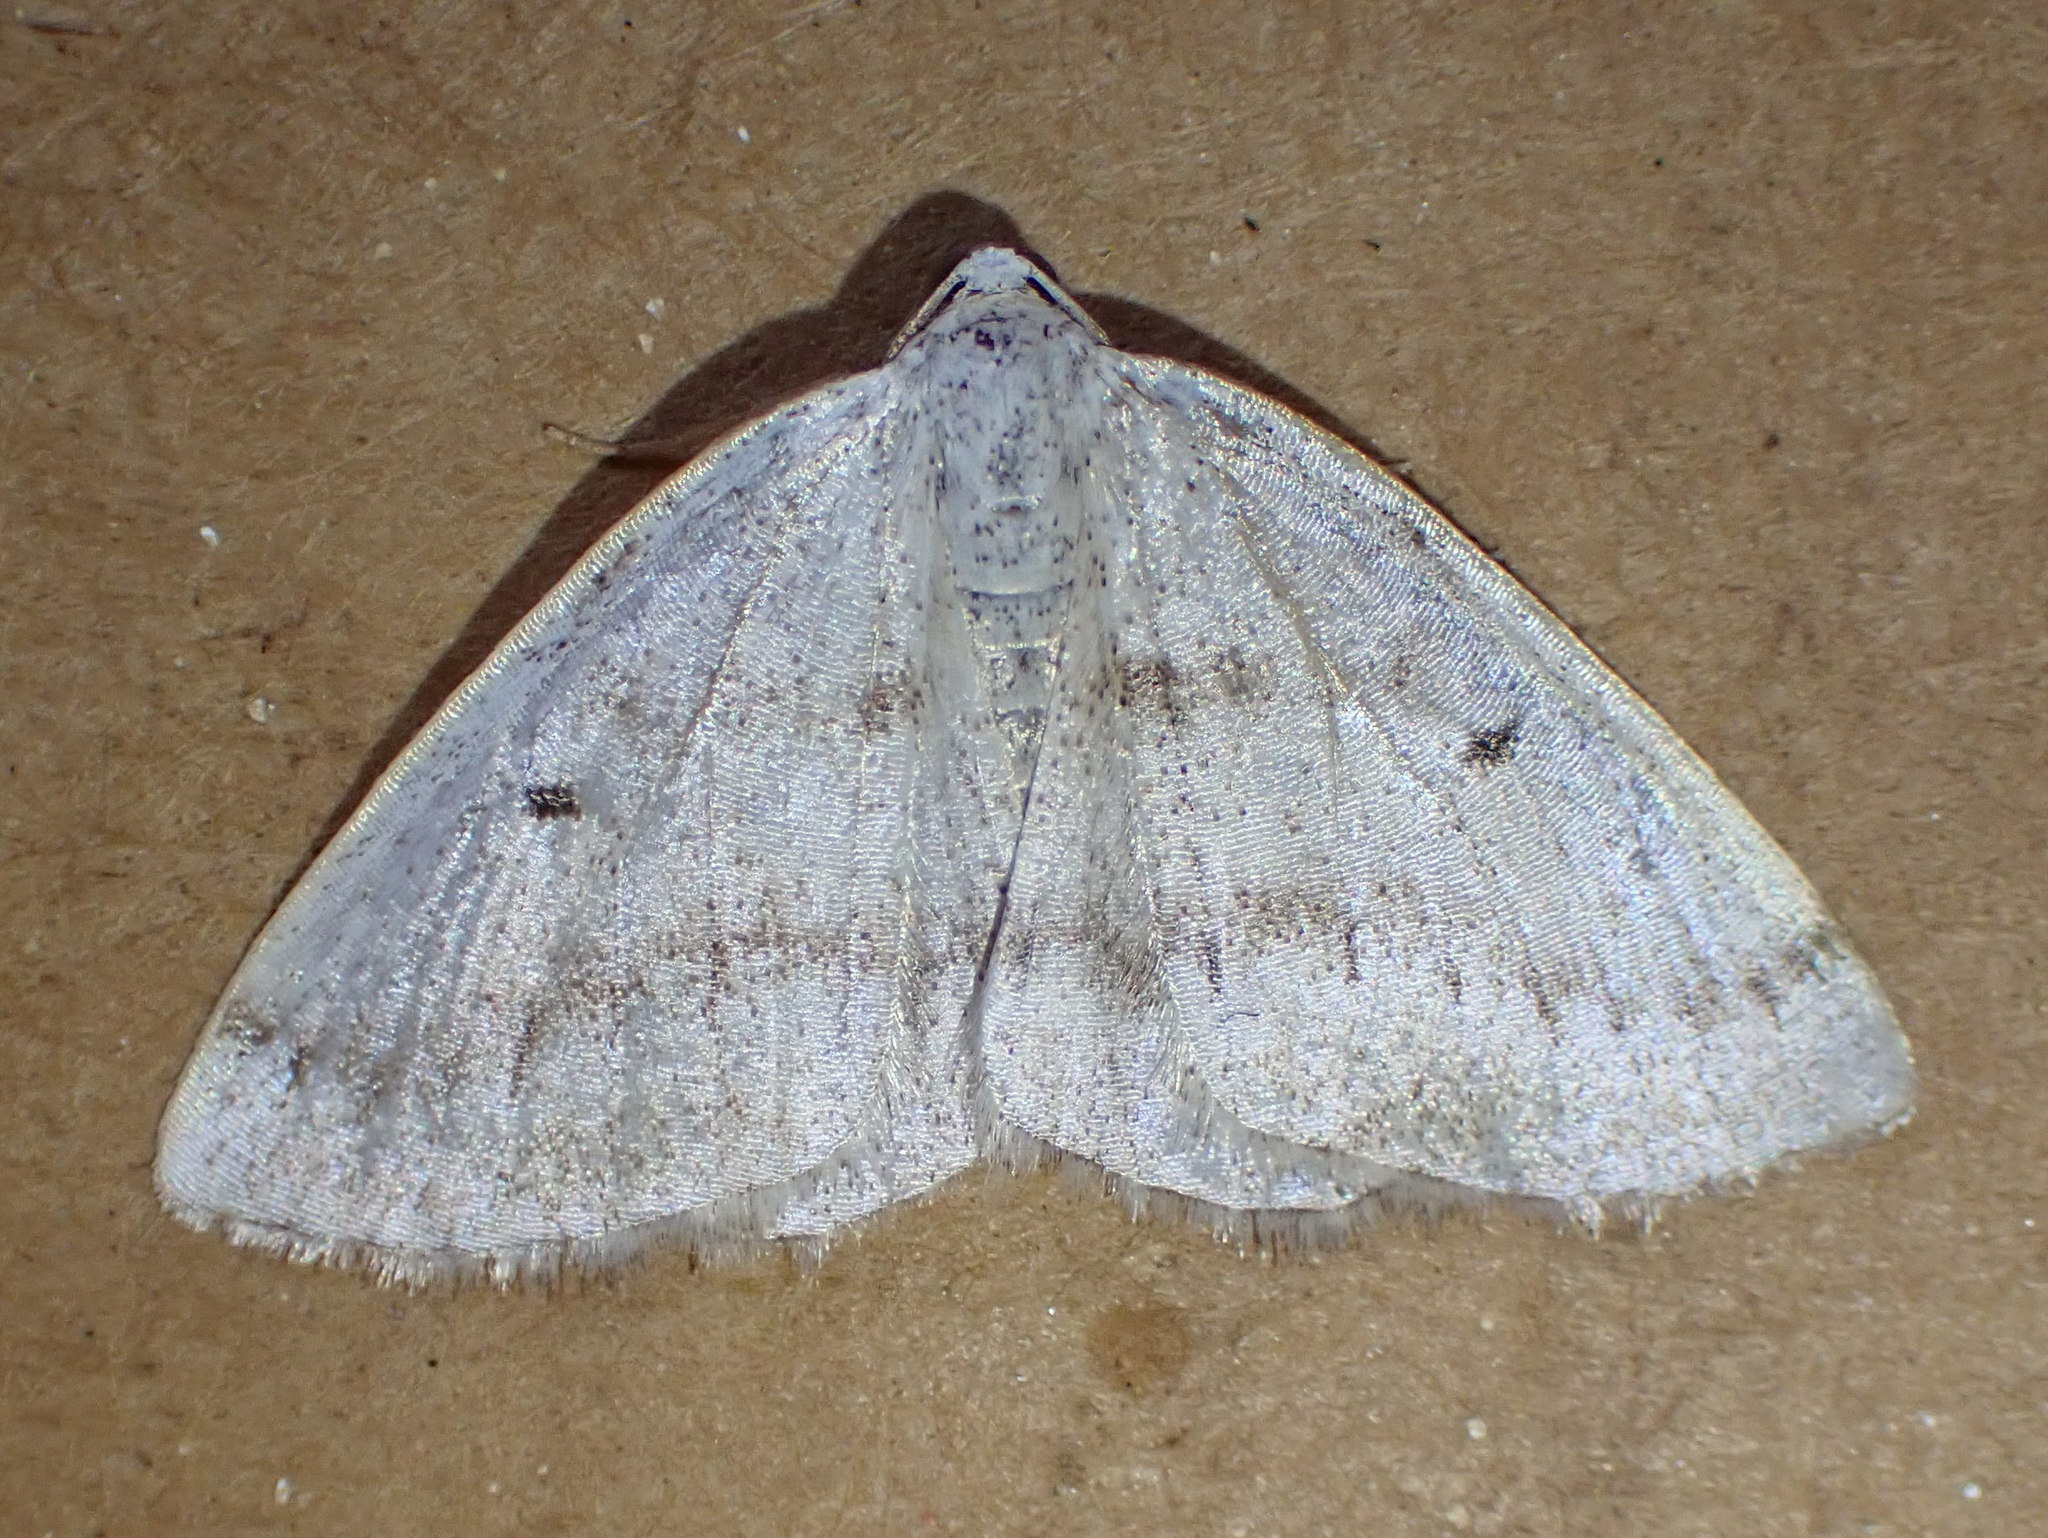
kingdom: Animalia
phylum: Arthropoda
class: Insecta
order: Lepidoptera
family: Geometridae
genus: Lomographa
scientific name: Lomographa glomeraria
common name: Gray spring moth
